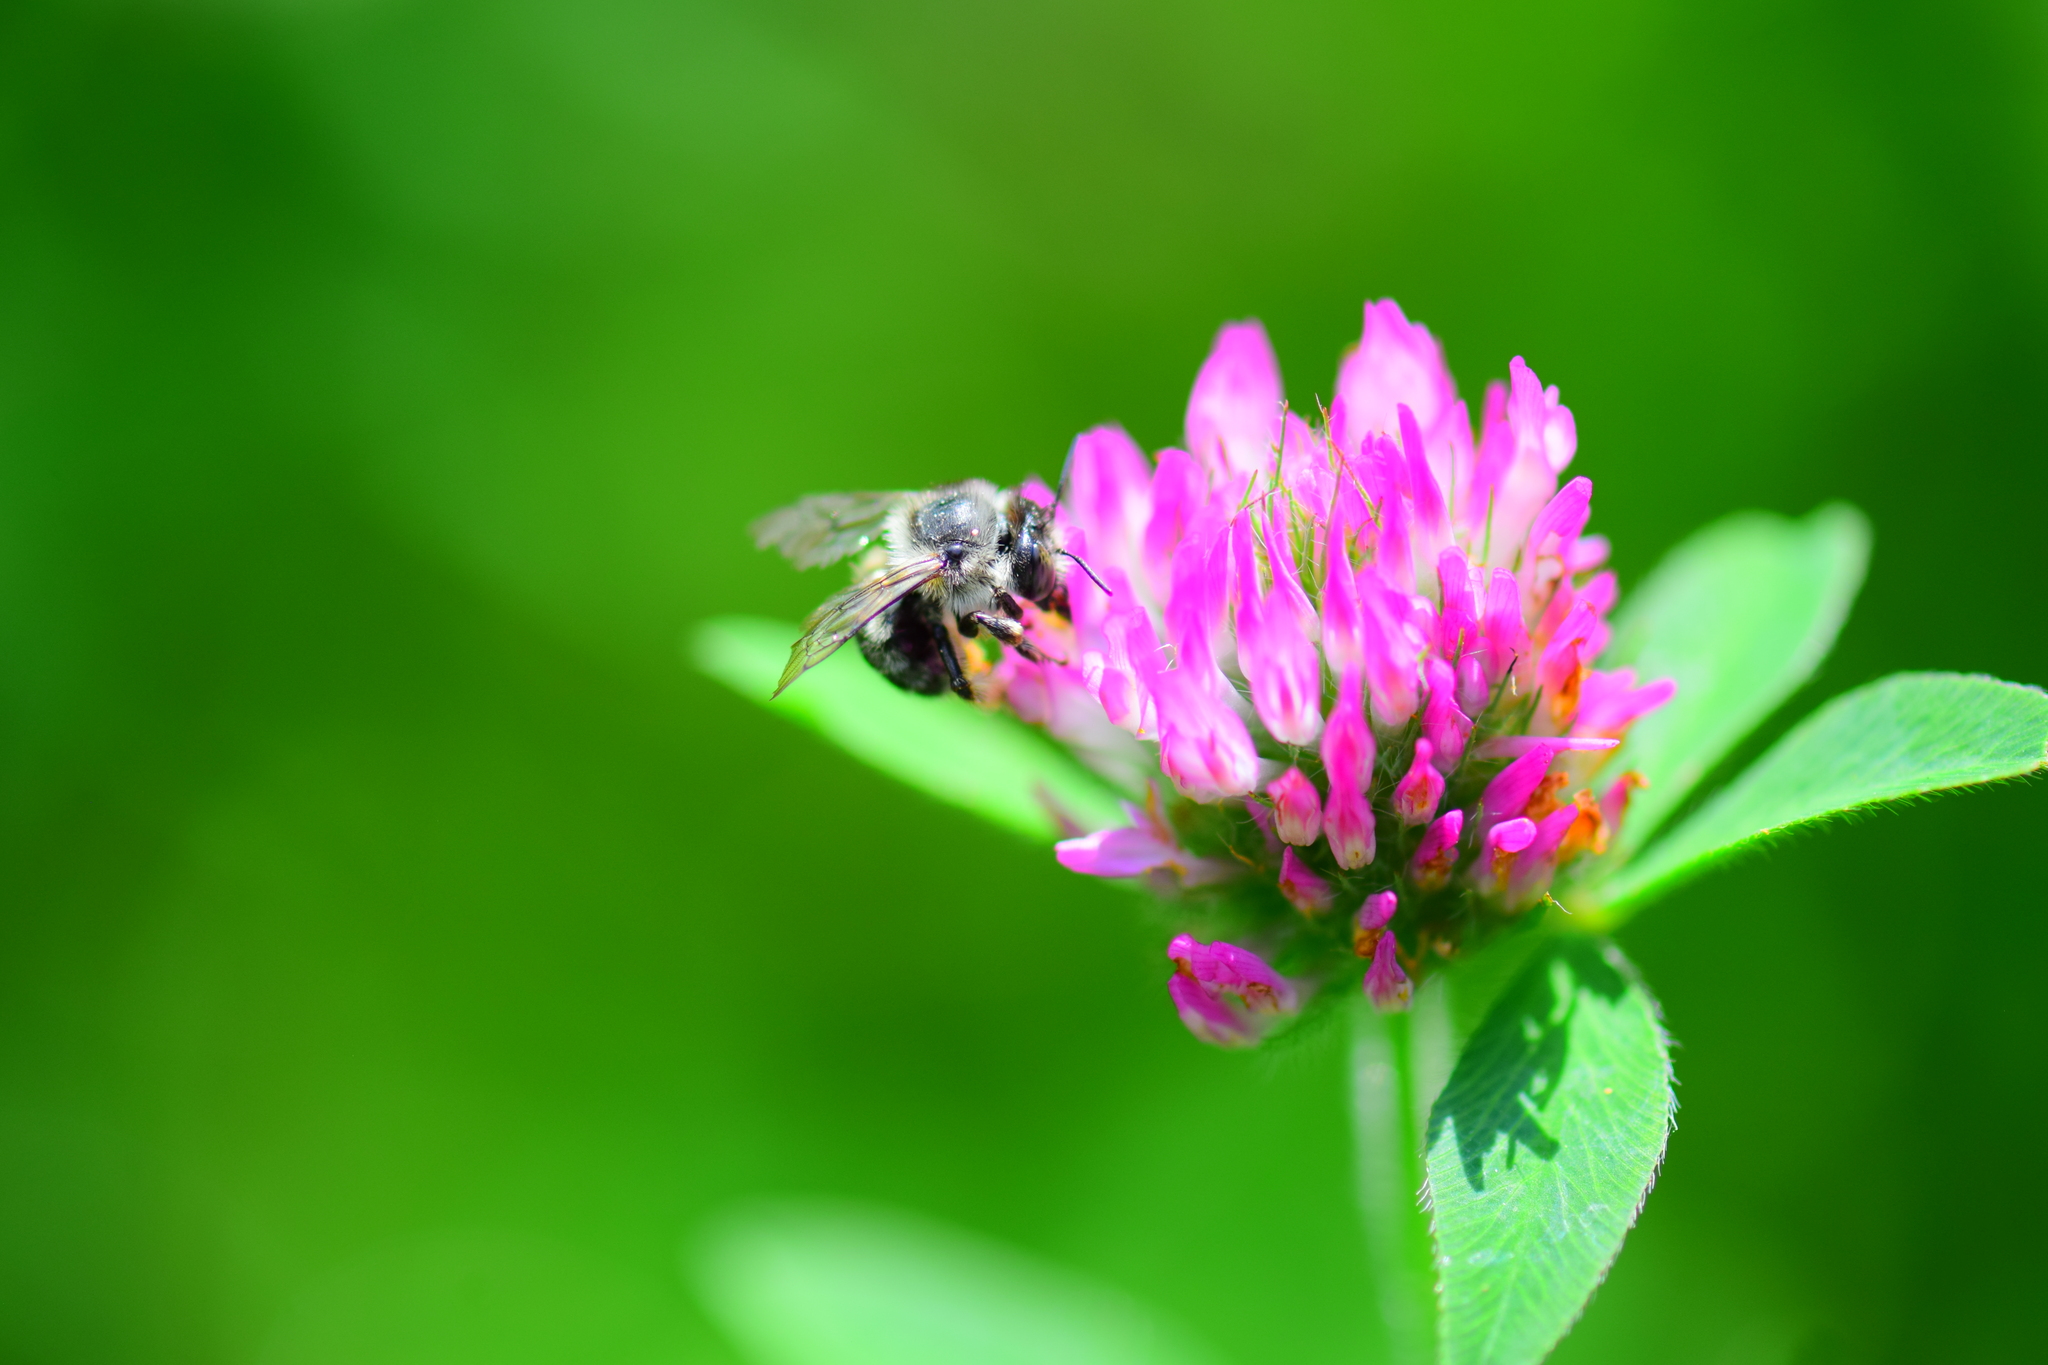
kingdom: Animalia
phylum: Arthropoda
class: Insecta
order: Hymenoptera
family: Apidae
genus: Anthophora
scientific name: Anthophora terminalis
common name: Orange-tipped wood-digger bee
